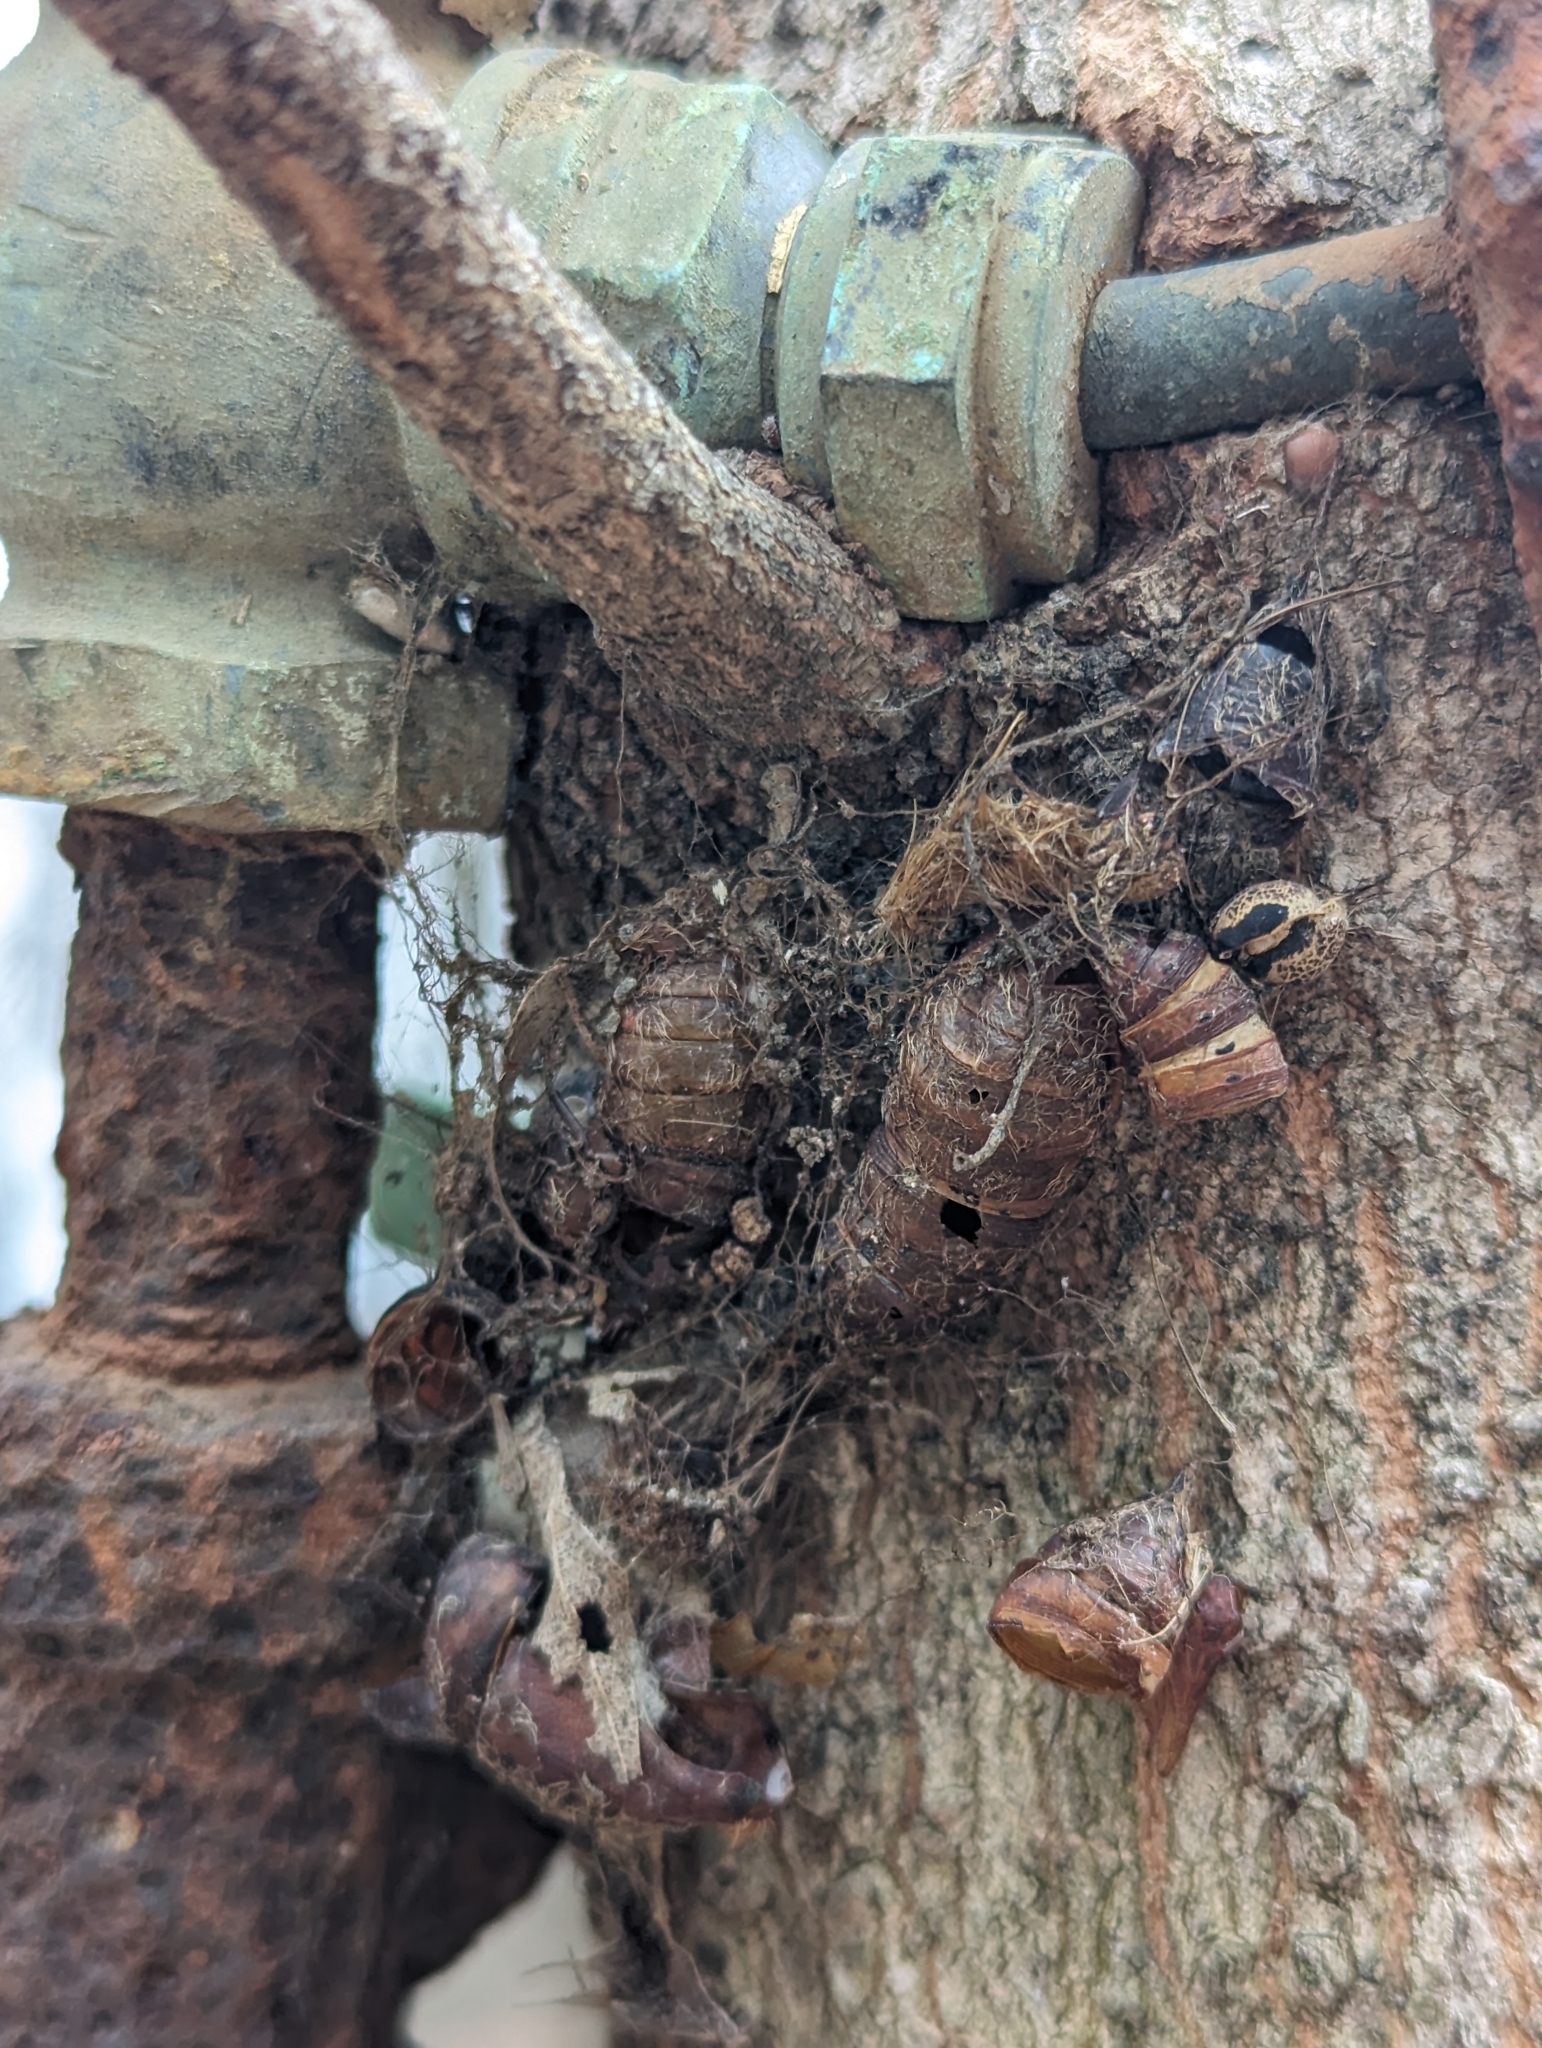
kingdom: Animalia
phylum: Arthropoda
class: Insecta
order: Lepidoptera
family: Erebidae
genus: Lymantria
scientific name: Lymantria dispar
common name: Gypsy moth
